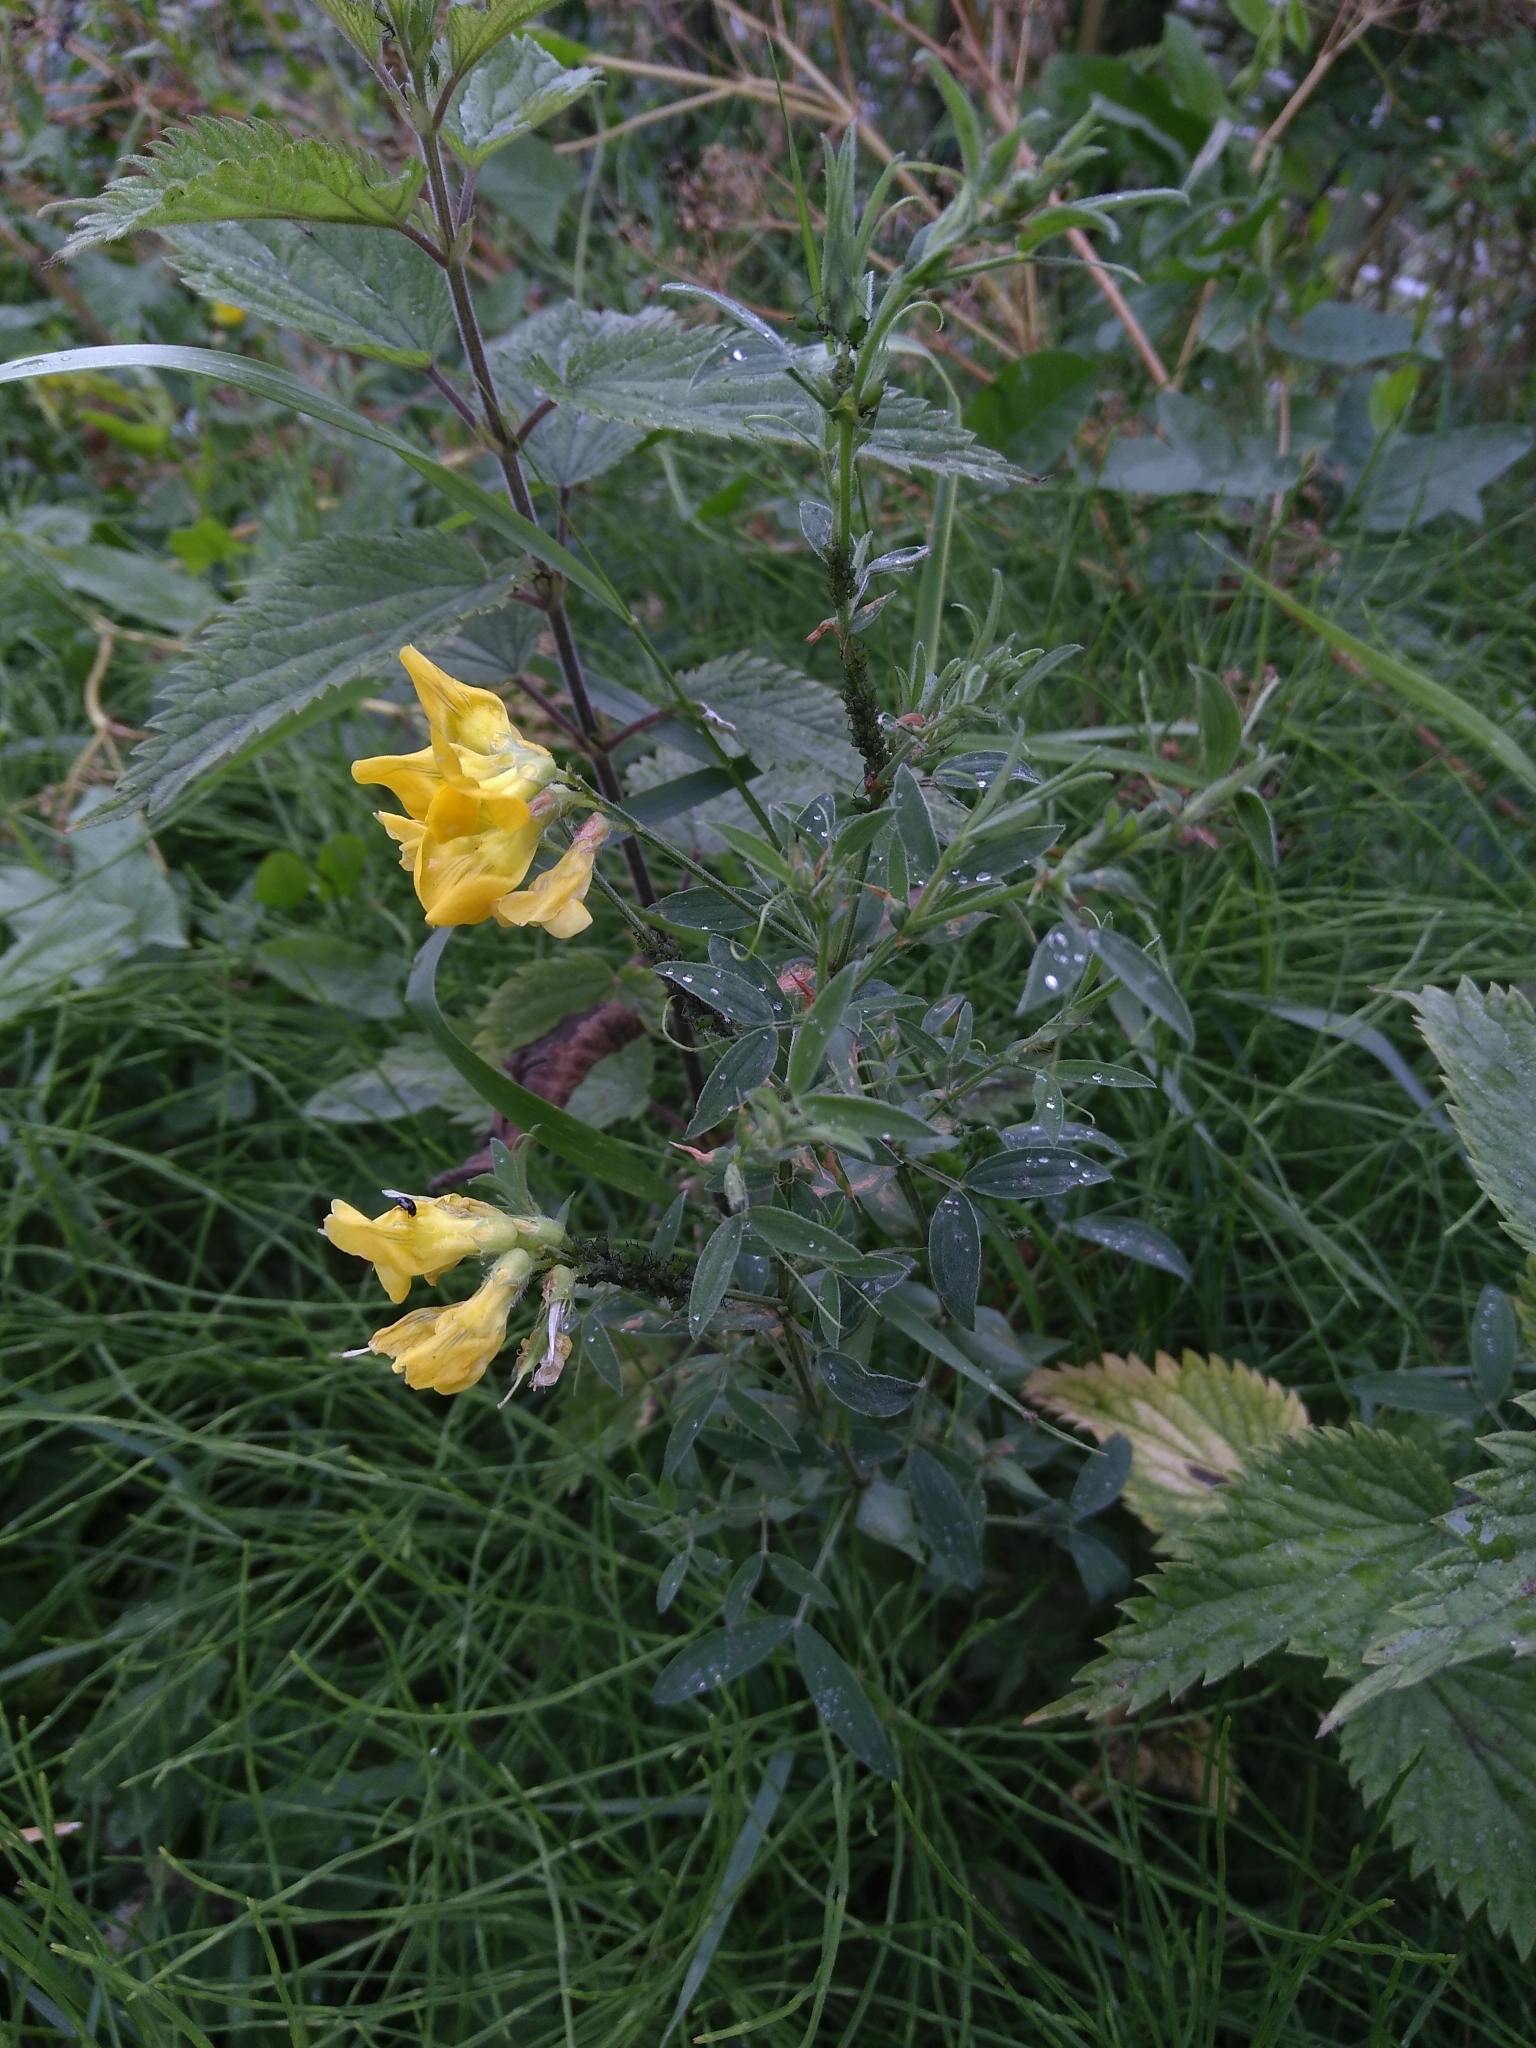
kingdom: Plantae
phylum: Tracheophyta
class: Magnoliopsida
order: Fabales
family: Fabaceae
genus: Lathyrus
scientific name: Lathyrus pratensis
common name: Meadow vetchling
